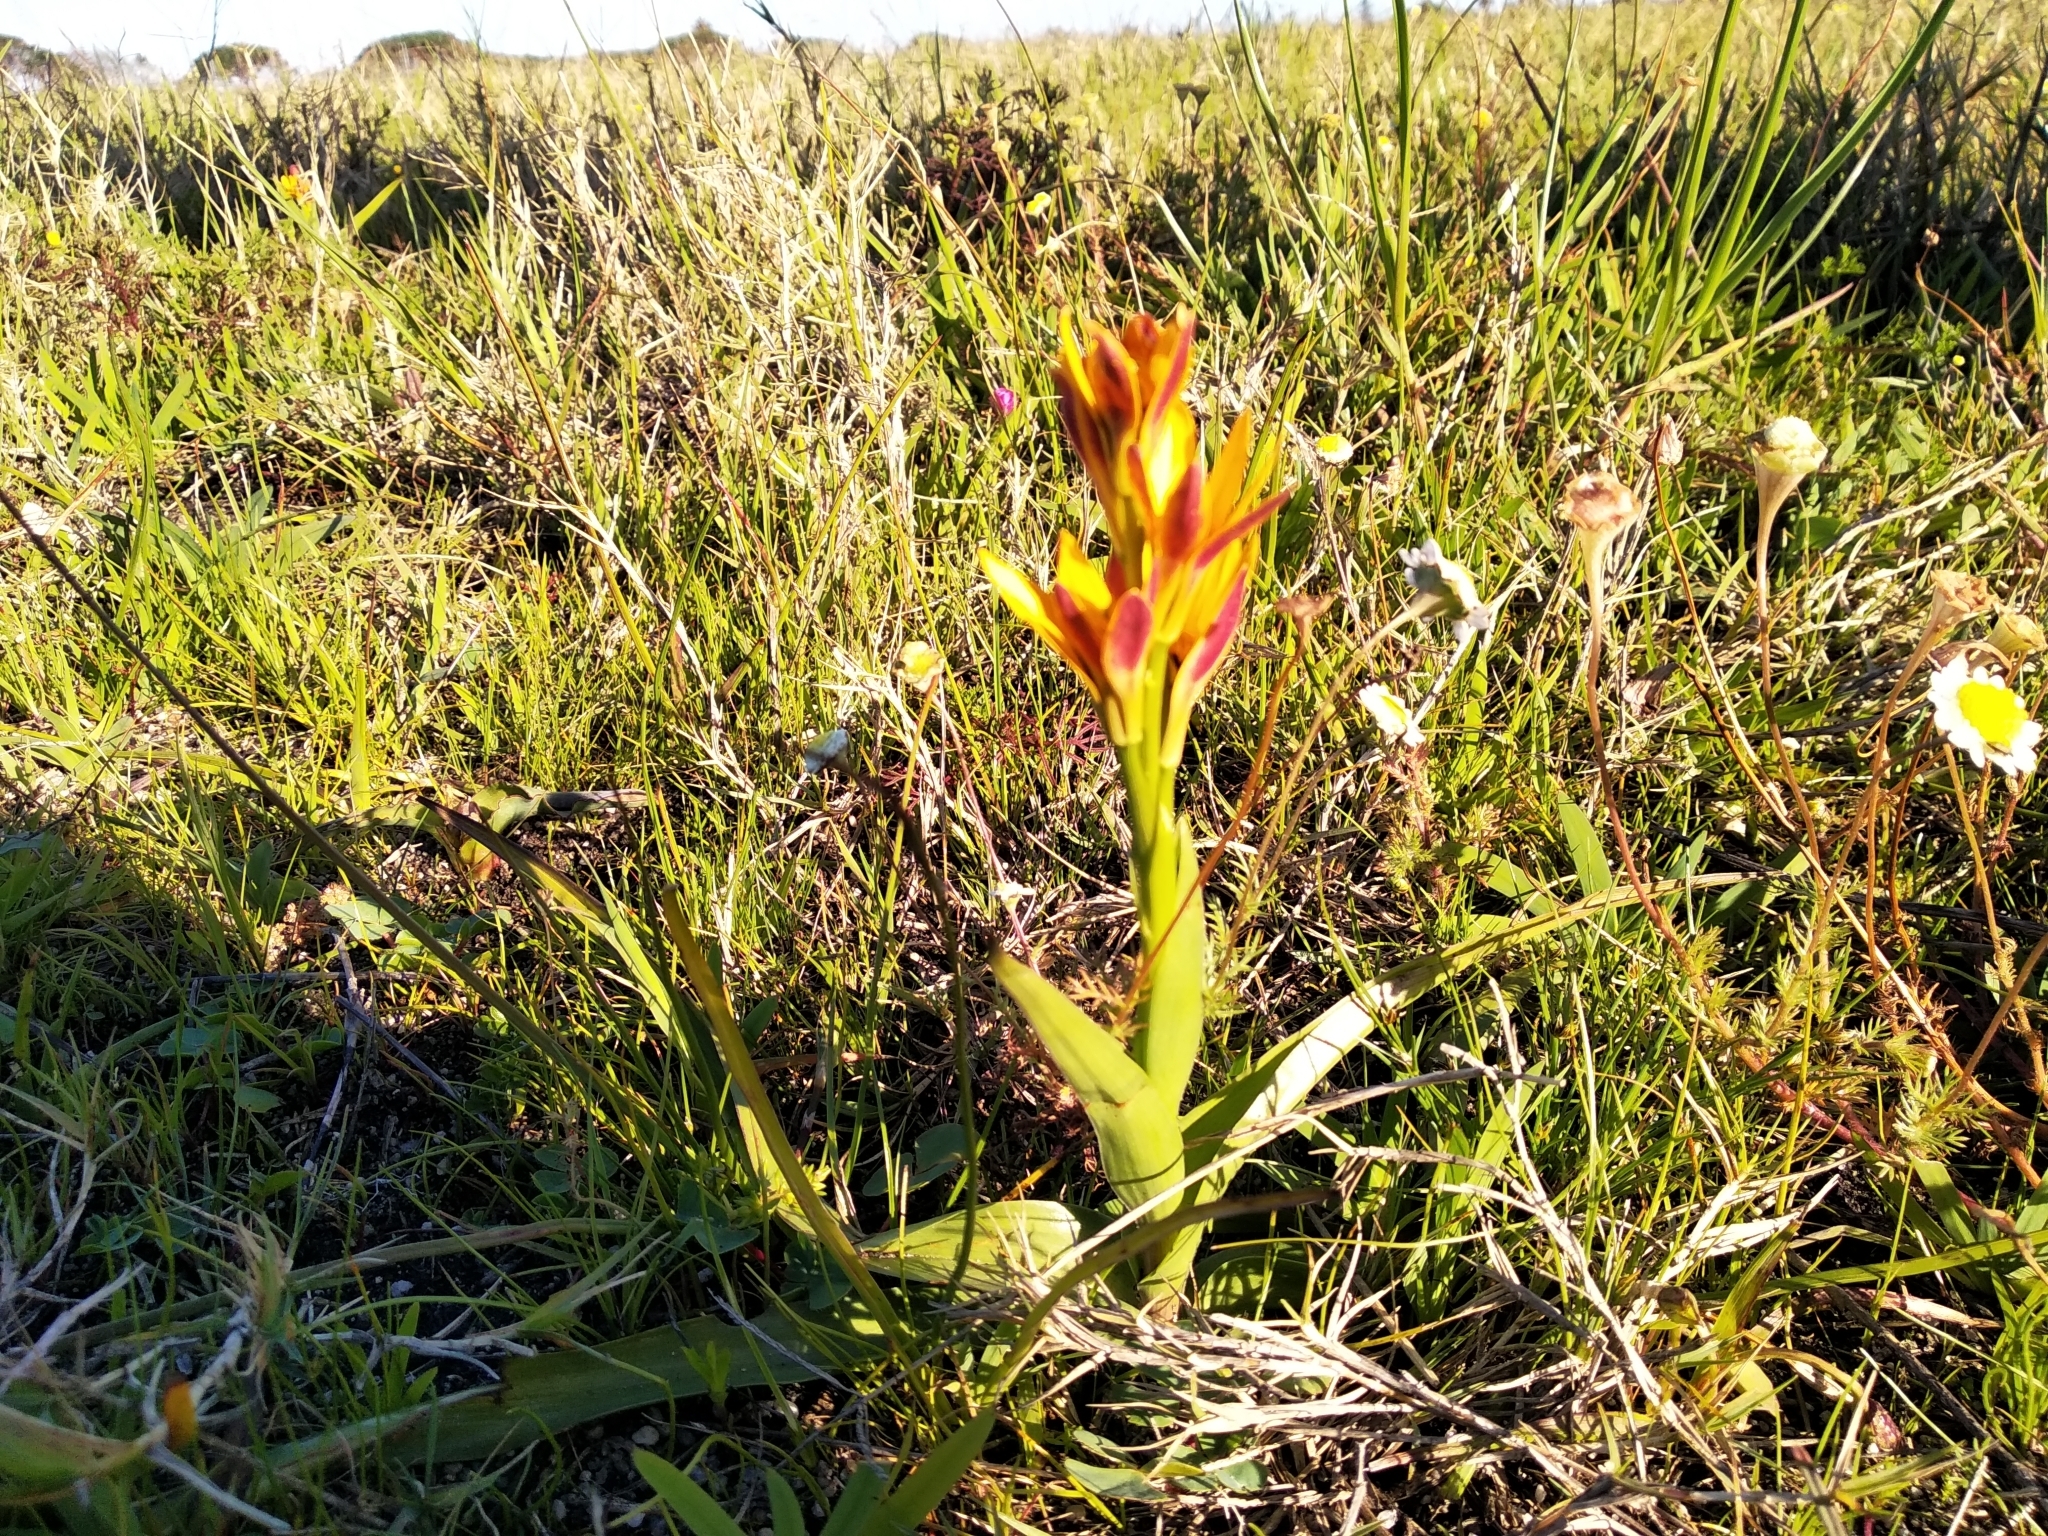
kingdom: Plantae
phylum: Tracheophyta
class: Liliopsida
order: Liliales
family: Colchicaceae
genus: Baeometra
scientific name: Baeometra uniflora
